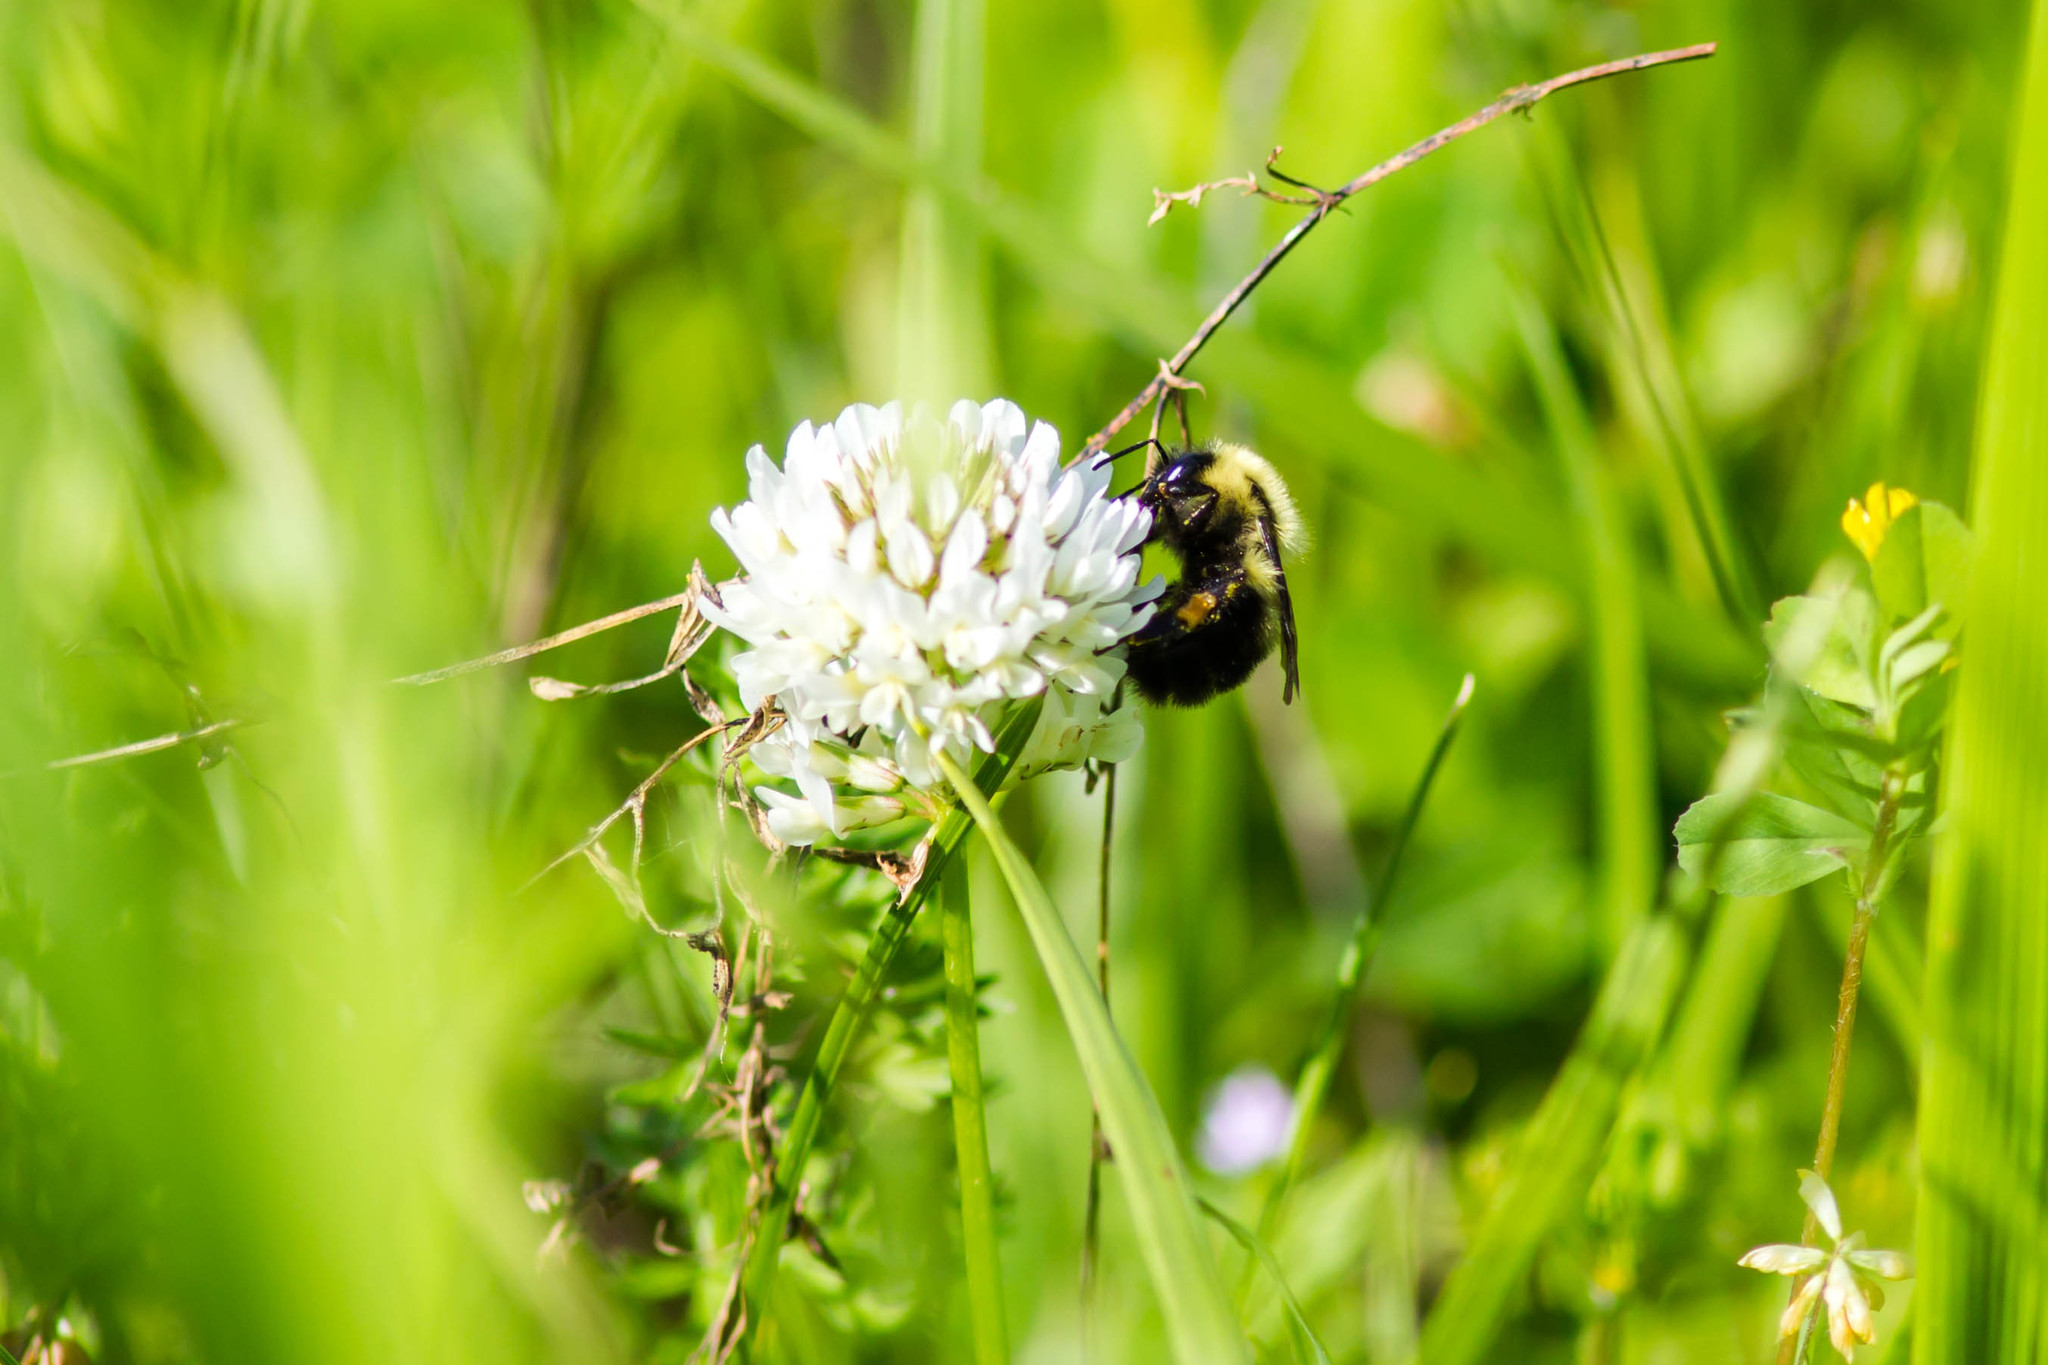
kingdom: Animalia
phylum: Arthropoda
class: Insecta
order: Hymenoptera
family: Apidae
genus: Bombus
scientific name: Bombus bimaculatus
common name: Two-spotted bumble bee
